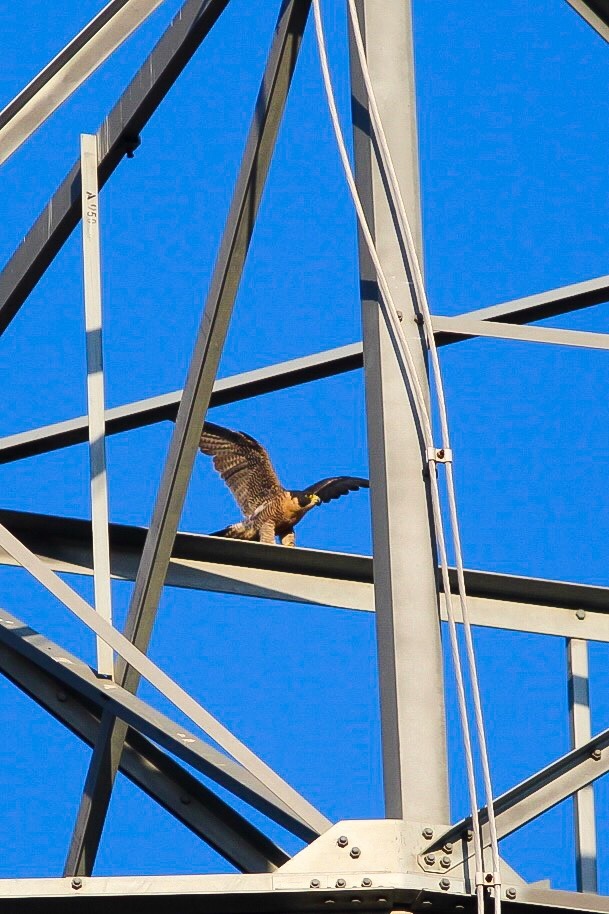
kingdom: Animalia
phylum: Chordata
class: Aves
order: Falconiformes
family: Falconidae
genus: Falco
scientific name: Falco peregrinus
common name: Peregrine falcon
